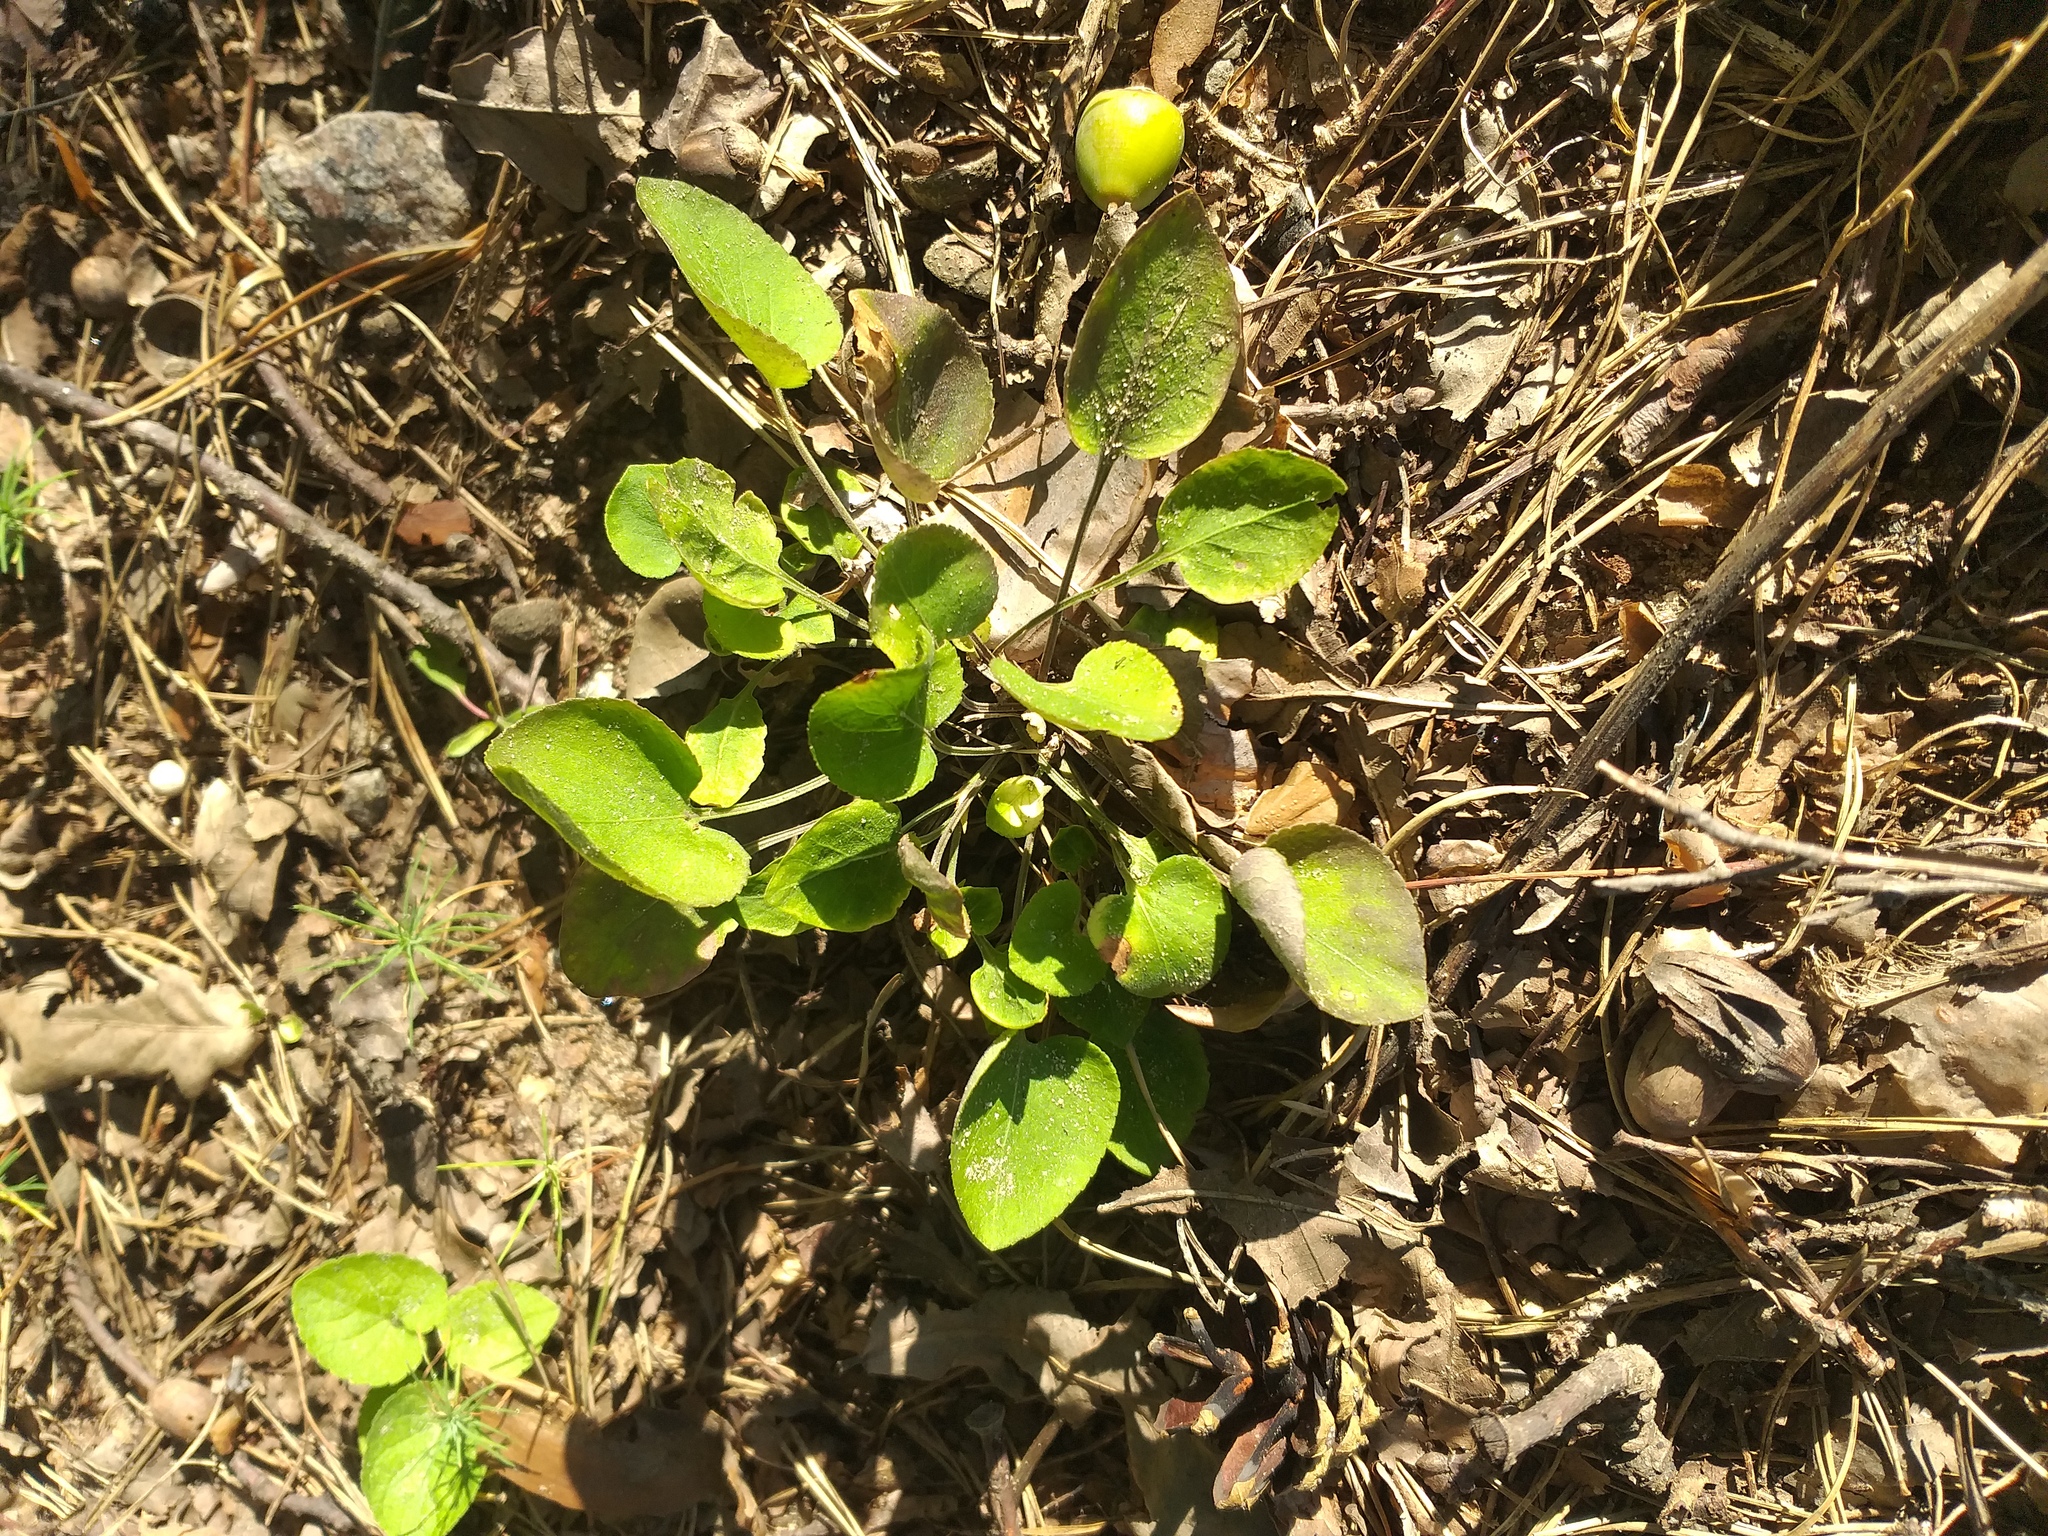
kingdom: Plantae
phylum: Tracheophyta
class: Magnoliopsida
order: Malpighiales
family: Violaceae
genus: Viola
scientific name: Viola rupestris
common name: Teesdale violet
